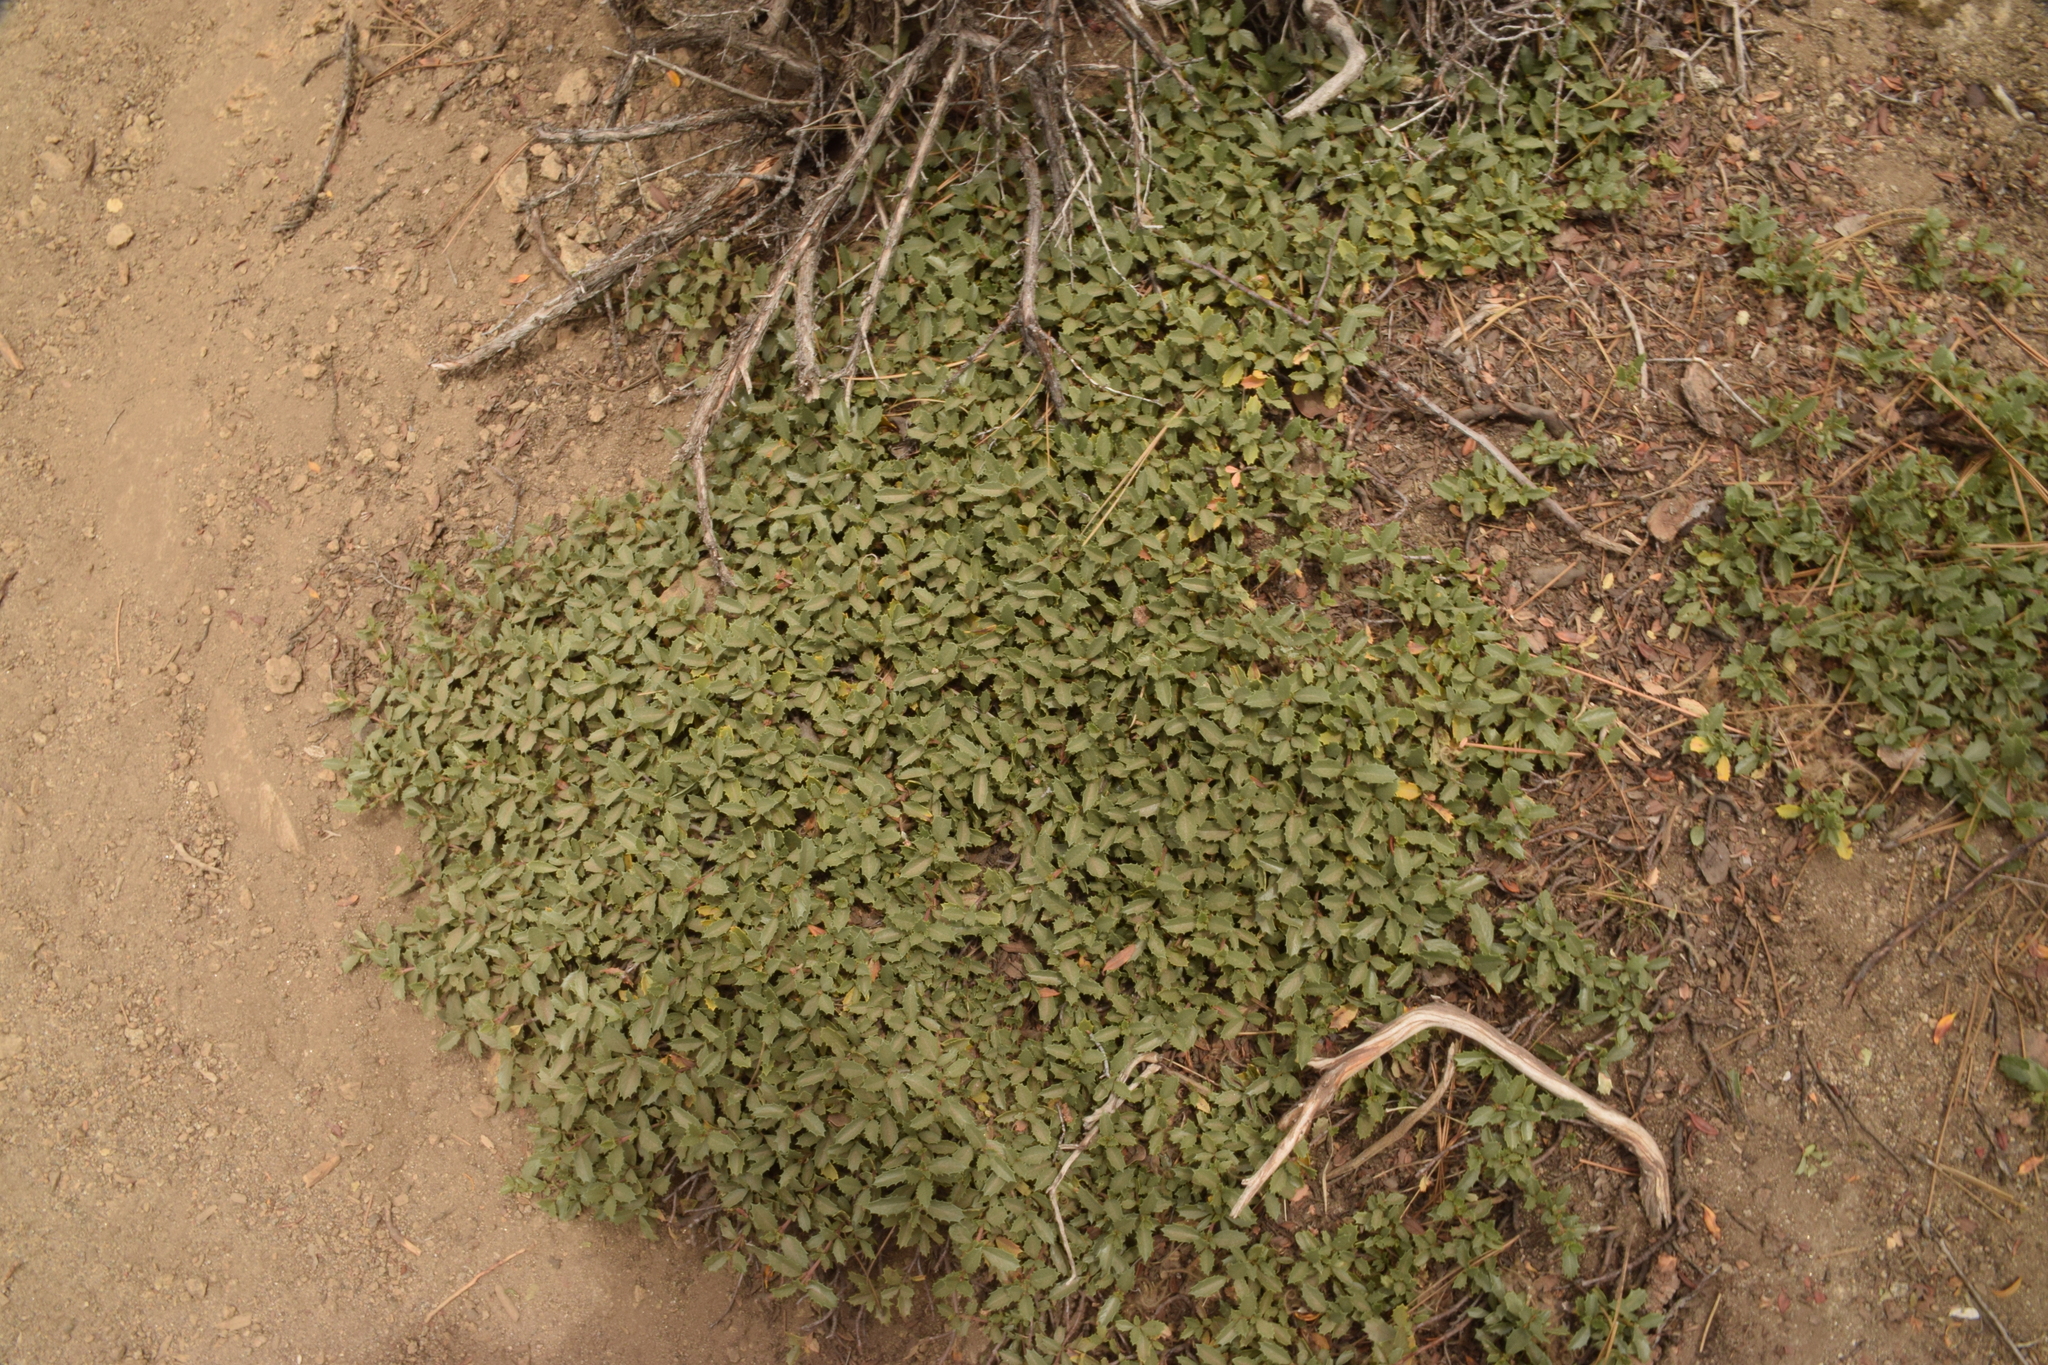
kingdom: Plantae
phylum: Tracheophyta
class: Magnoliopsida
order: Rosales
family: Rhamnaceae
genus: Ceanothus
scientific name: Ceanothus prostratus
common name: Mahala-mat
